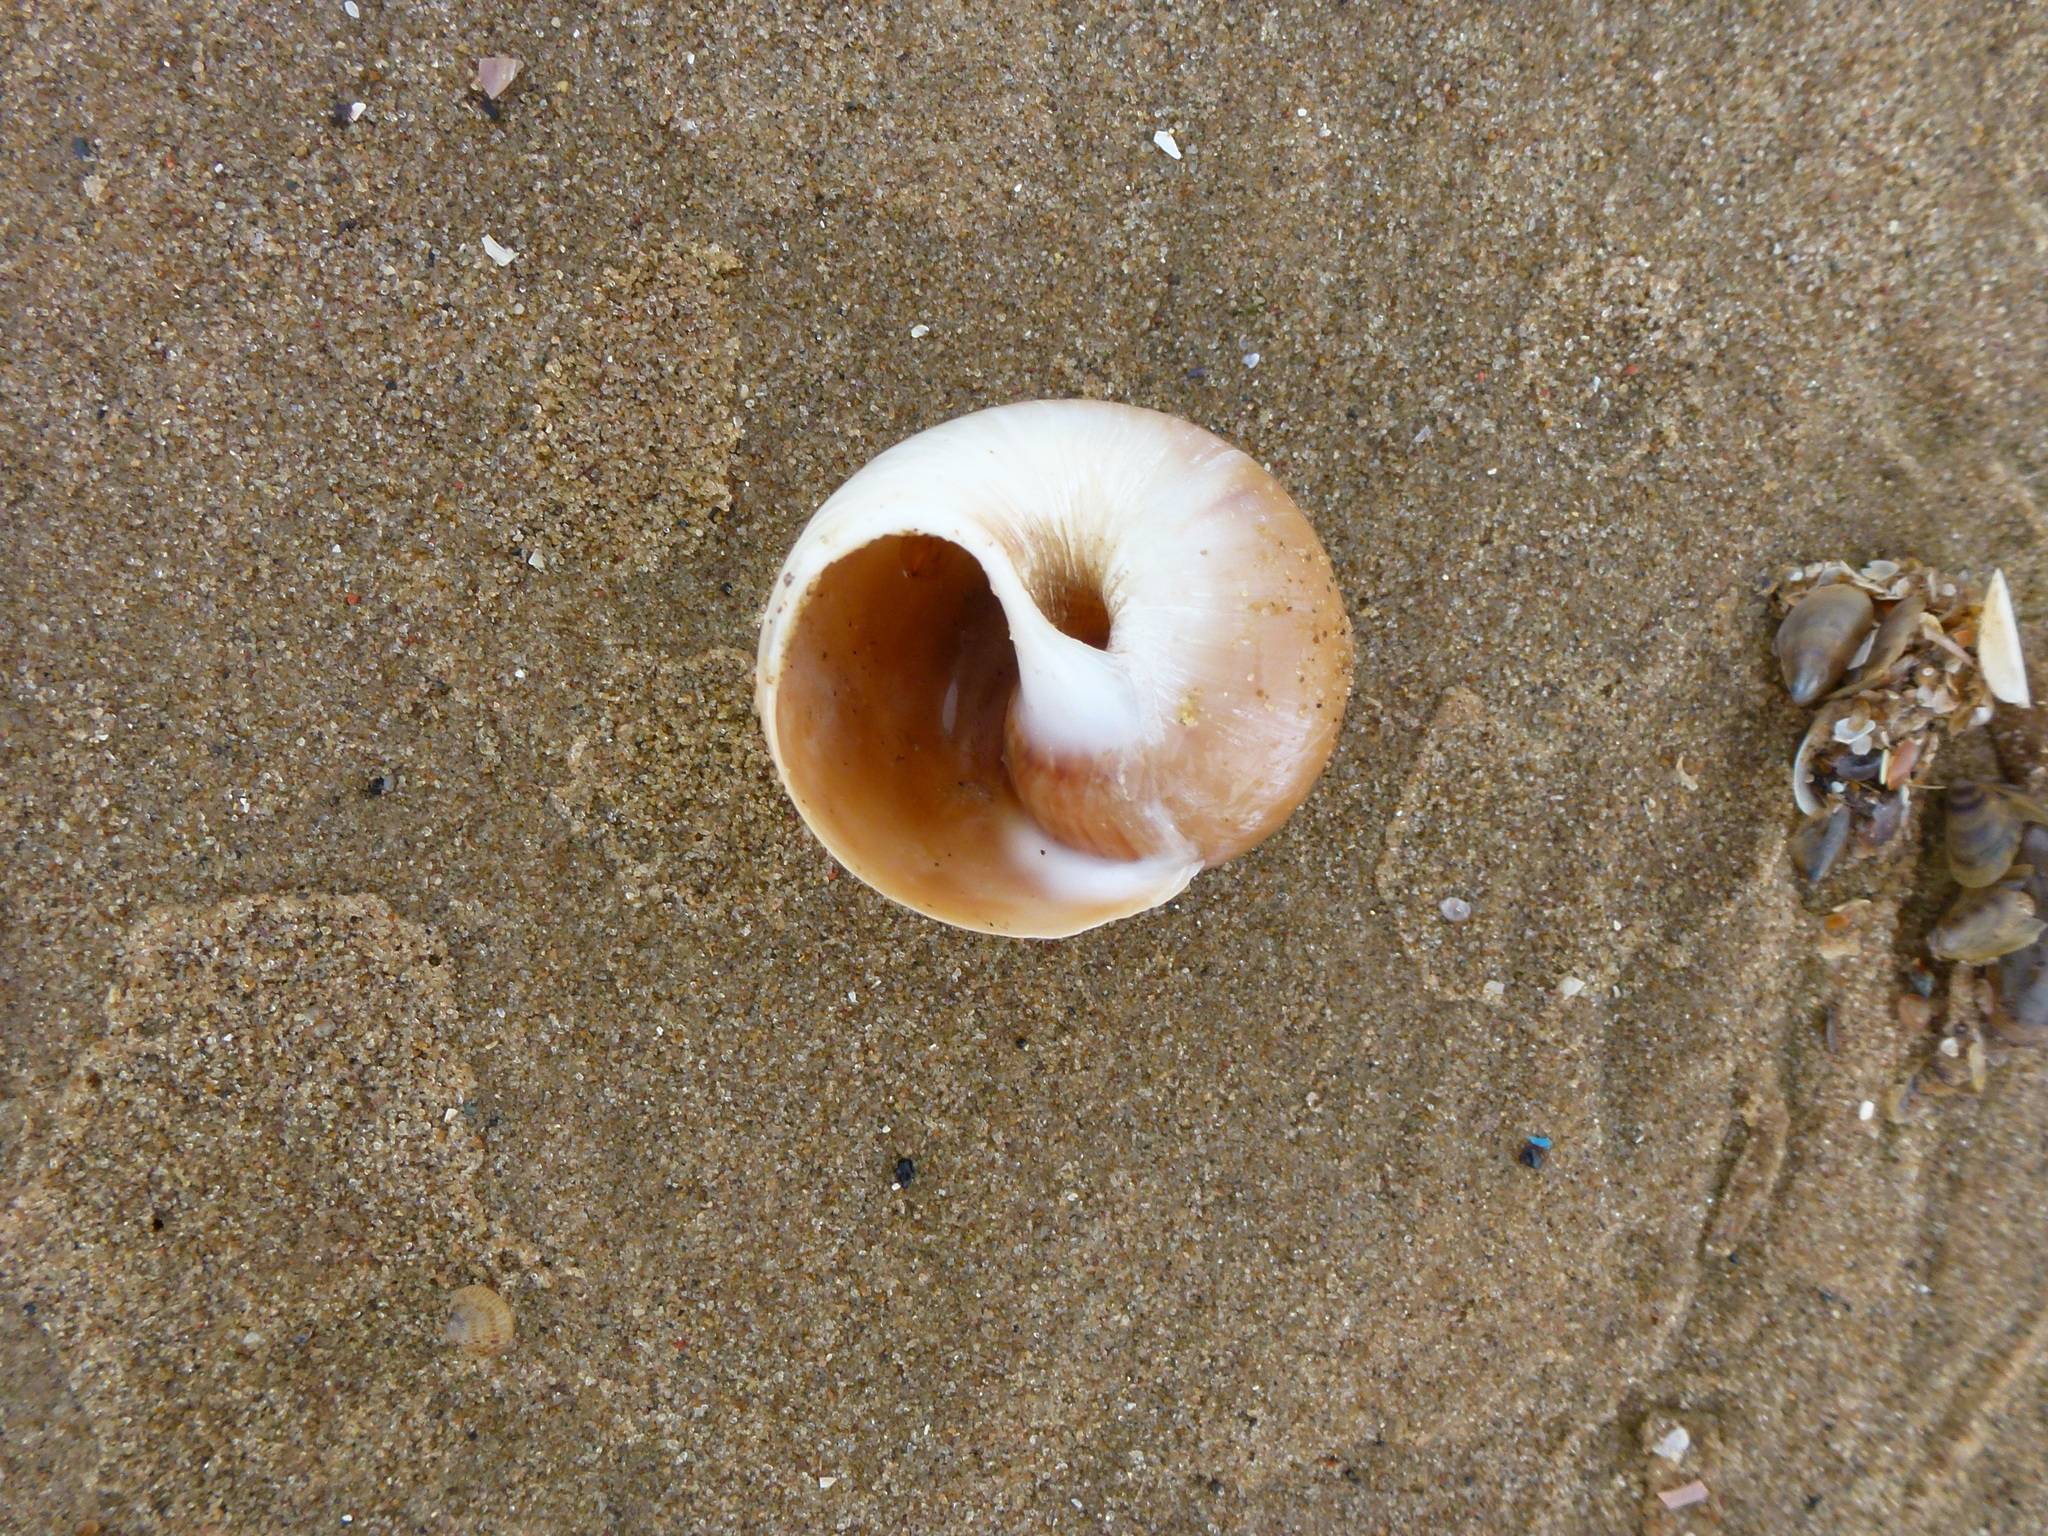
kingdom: Animalia
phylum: Mollusca
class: Gastropoda
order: Littorinimorpha
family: Naticidae
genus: Euspira
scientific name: Euspira catena
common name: Necklace shell
